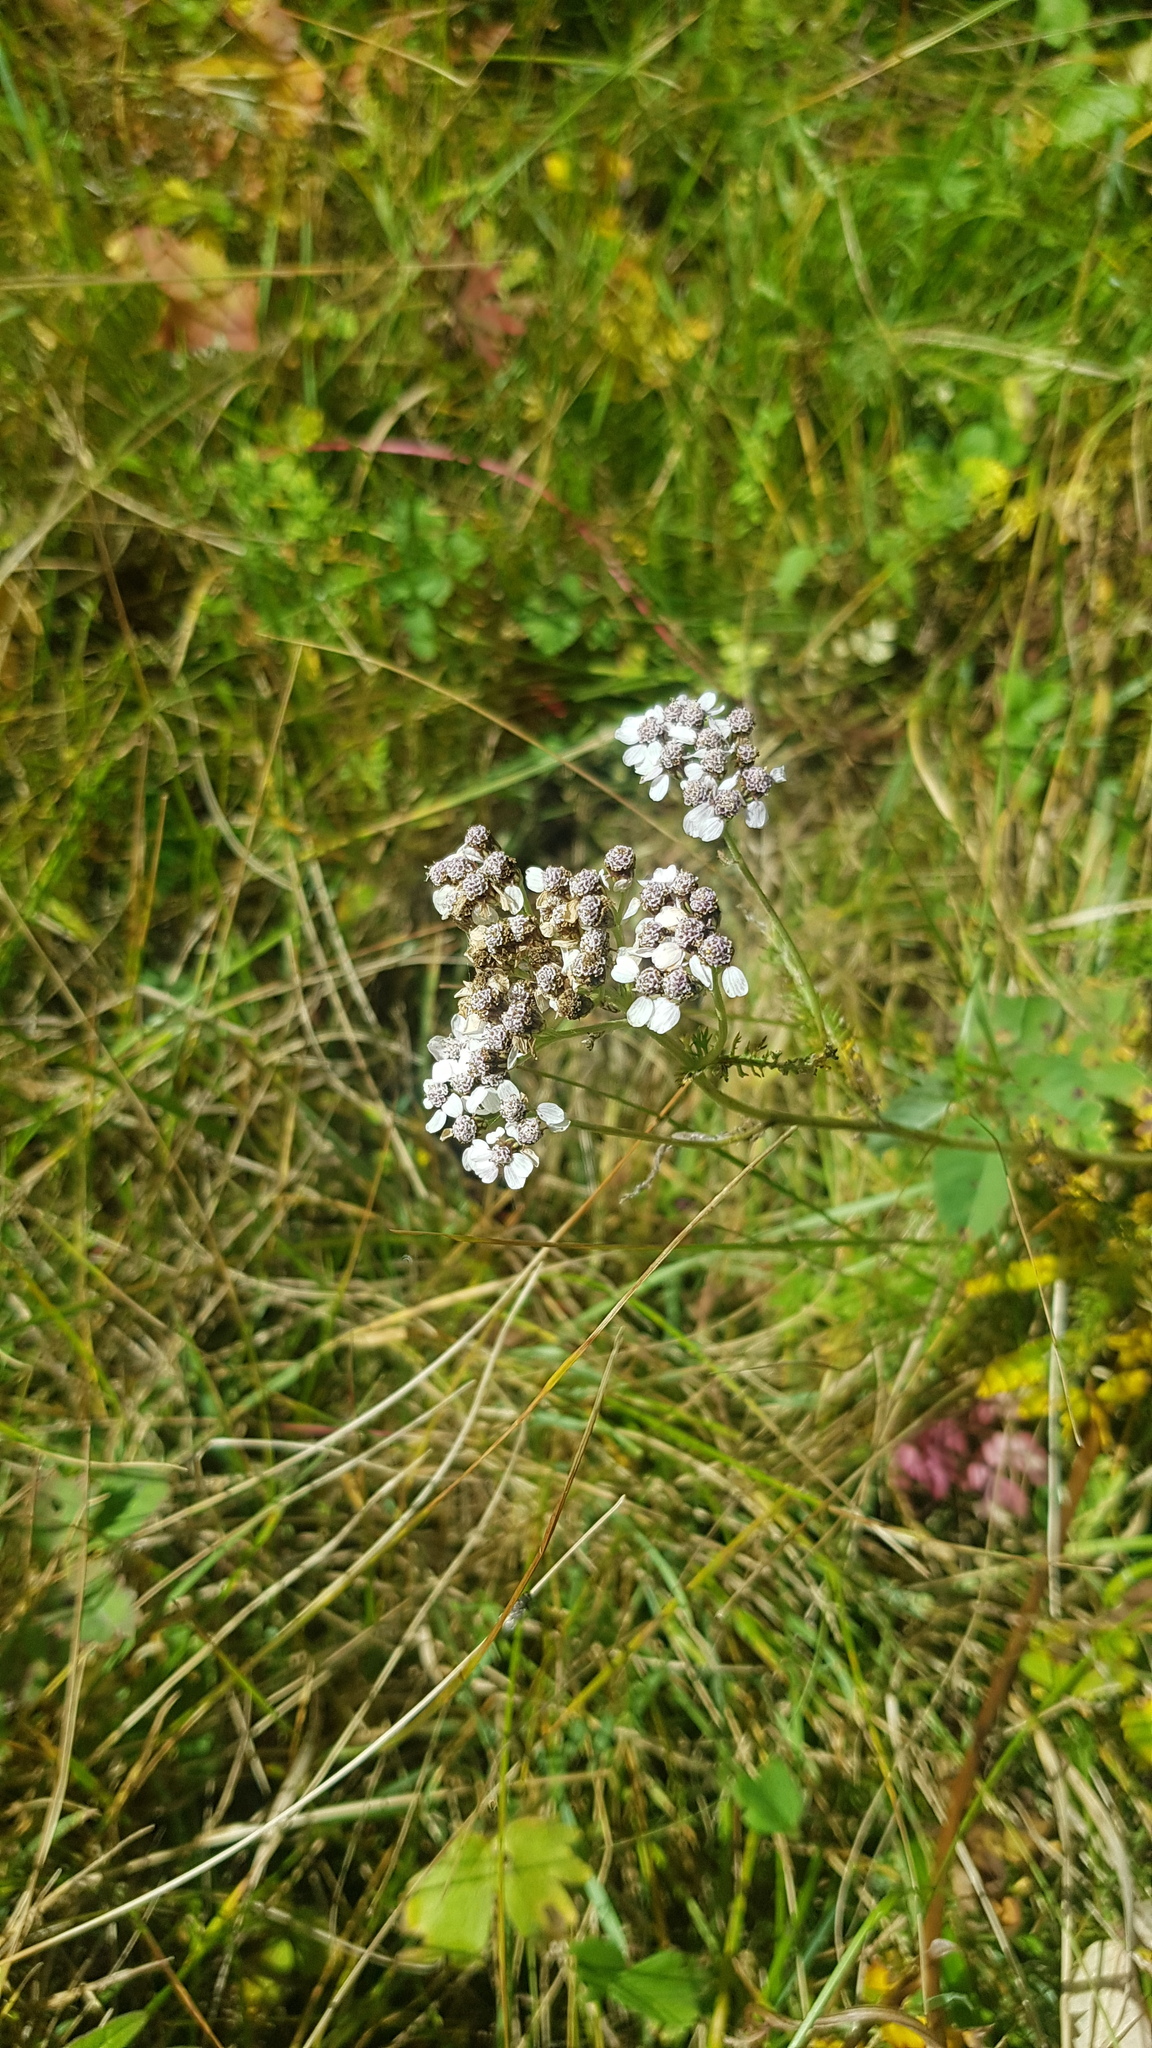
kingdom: Plantae
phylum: Tracheophyta
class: Magnoliopsida
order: Asterales
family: Asteraceae
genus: Achillea
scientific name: Achillea asiatica
